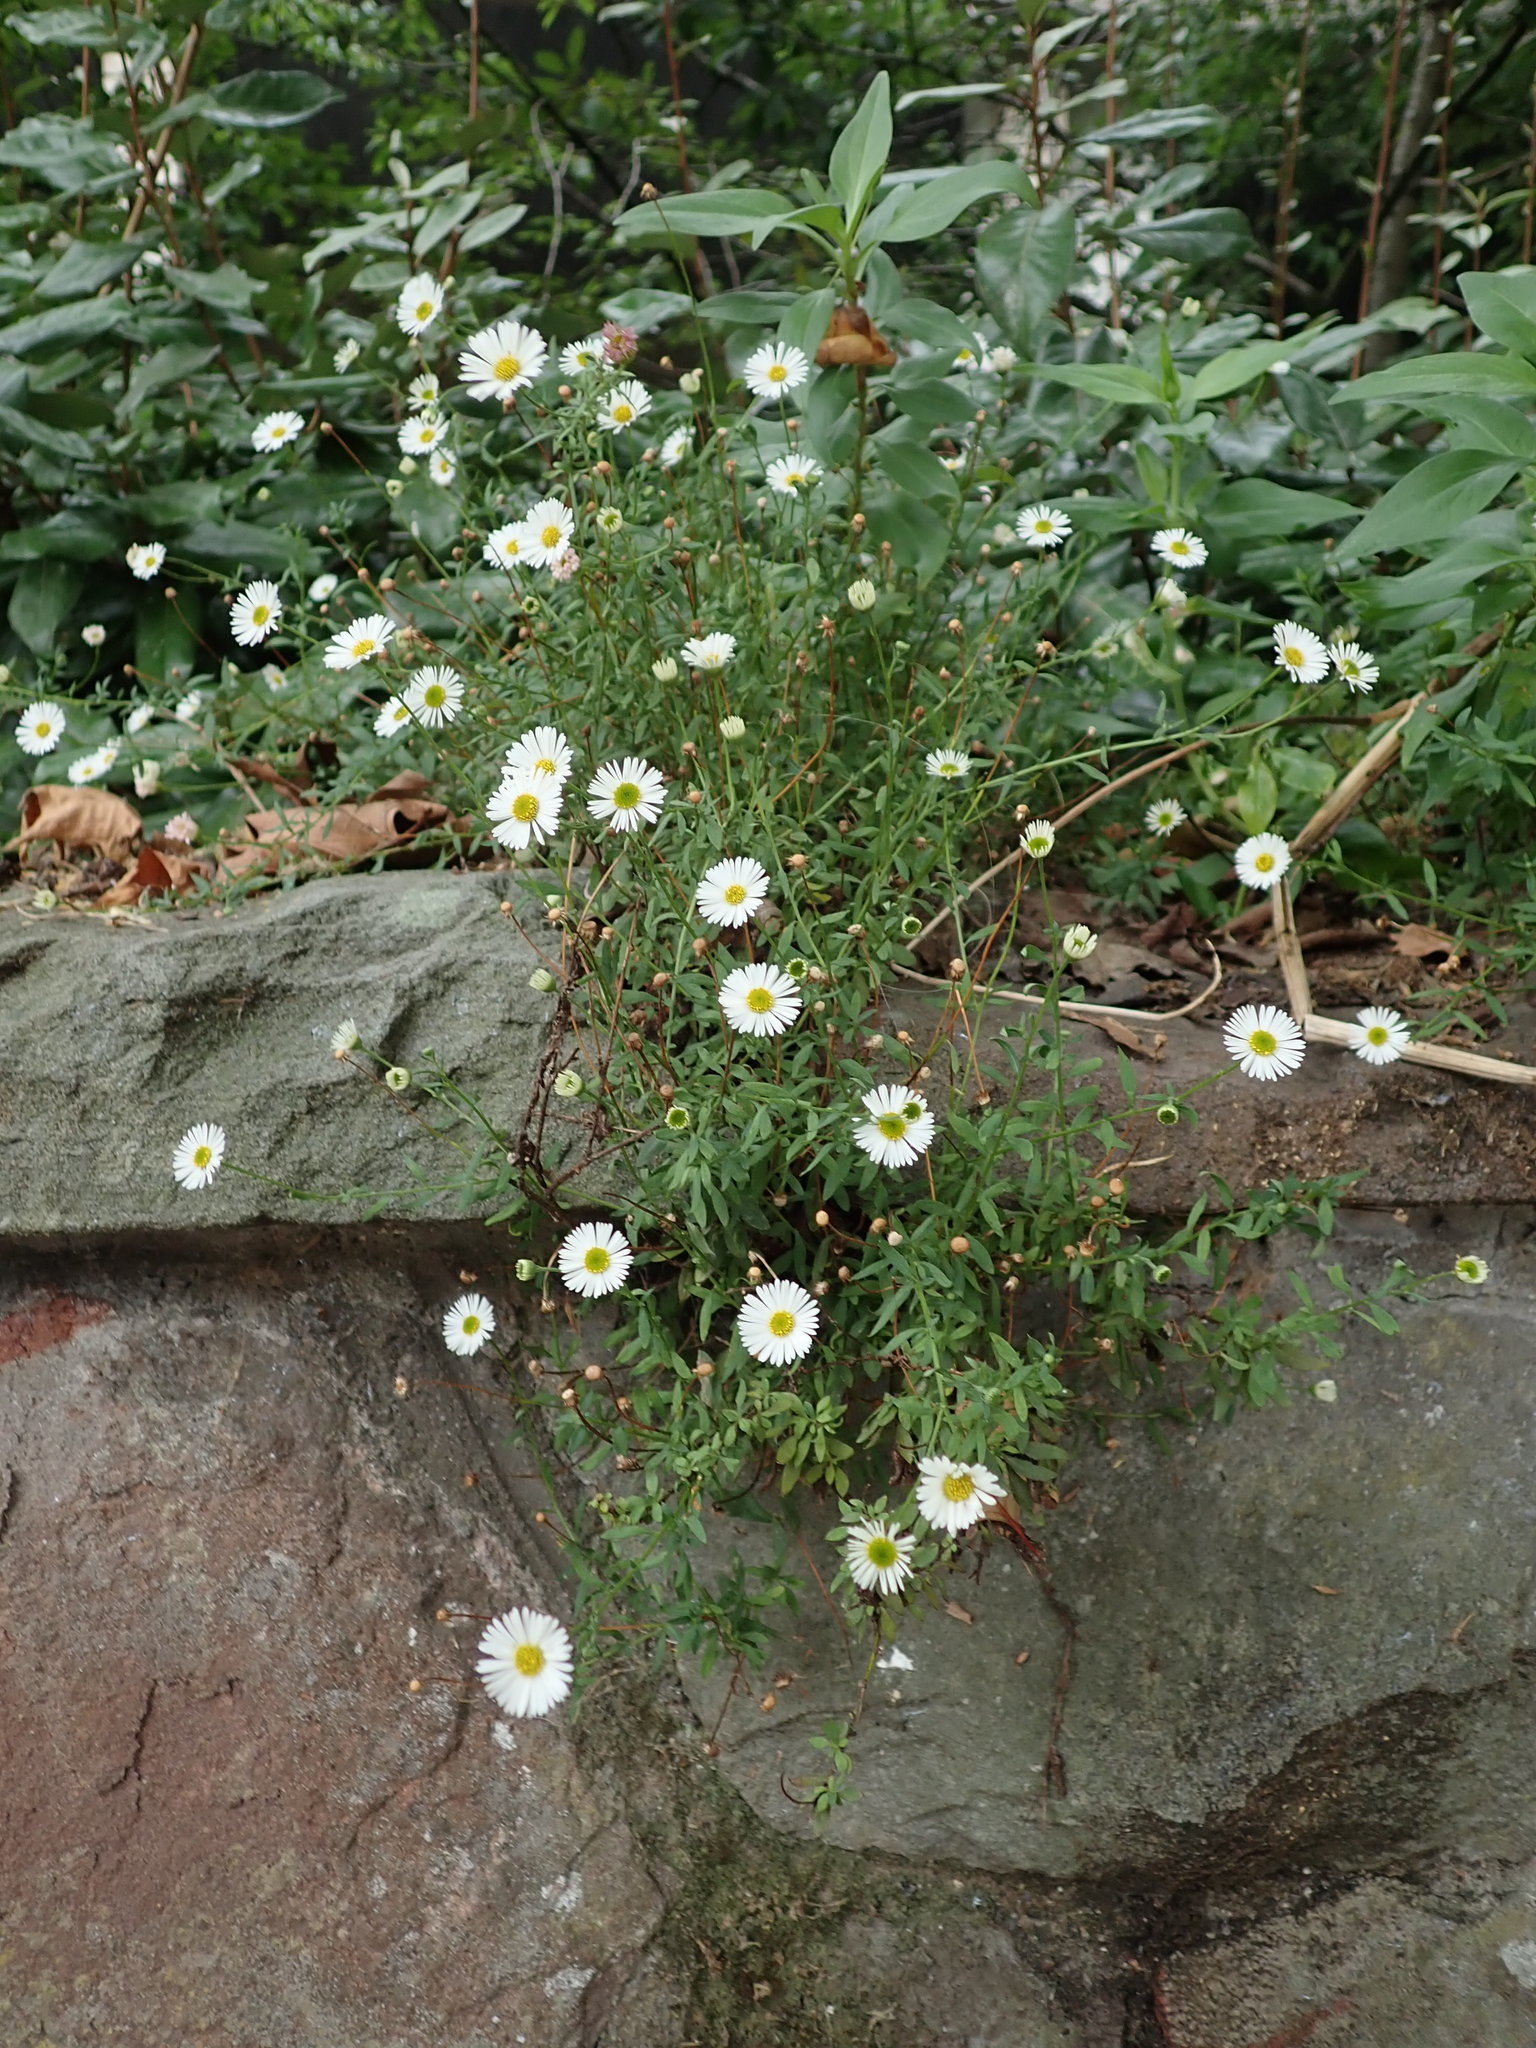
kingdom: Plantae
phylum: Tracheophyta
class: Magnoliopsida
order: Asterales
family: Asteraceae
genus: Erigeron
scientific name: Erigeron karvinskianus
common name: Mexican fleabane
